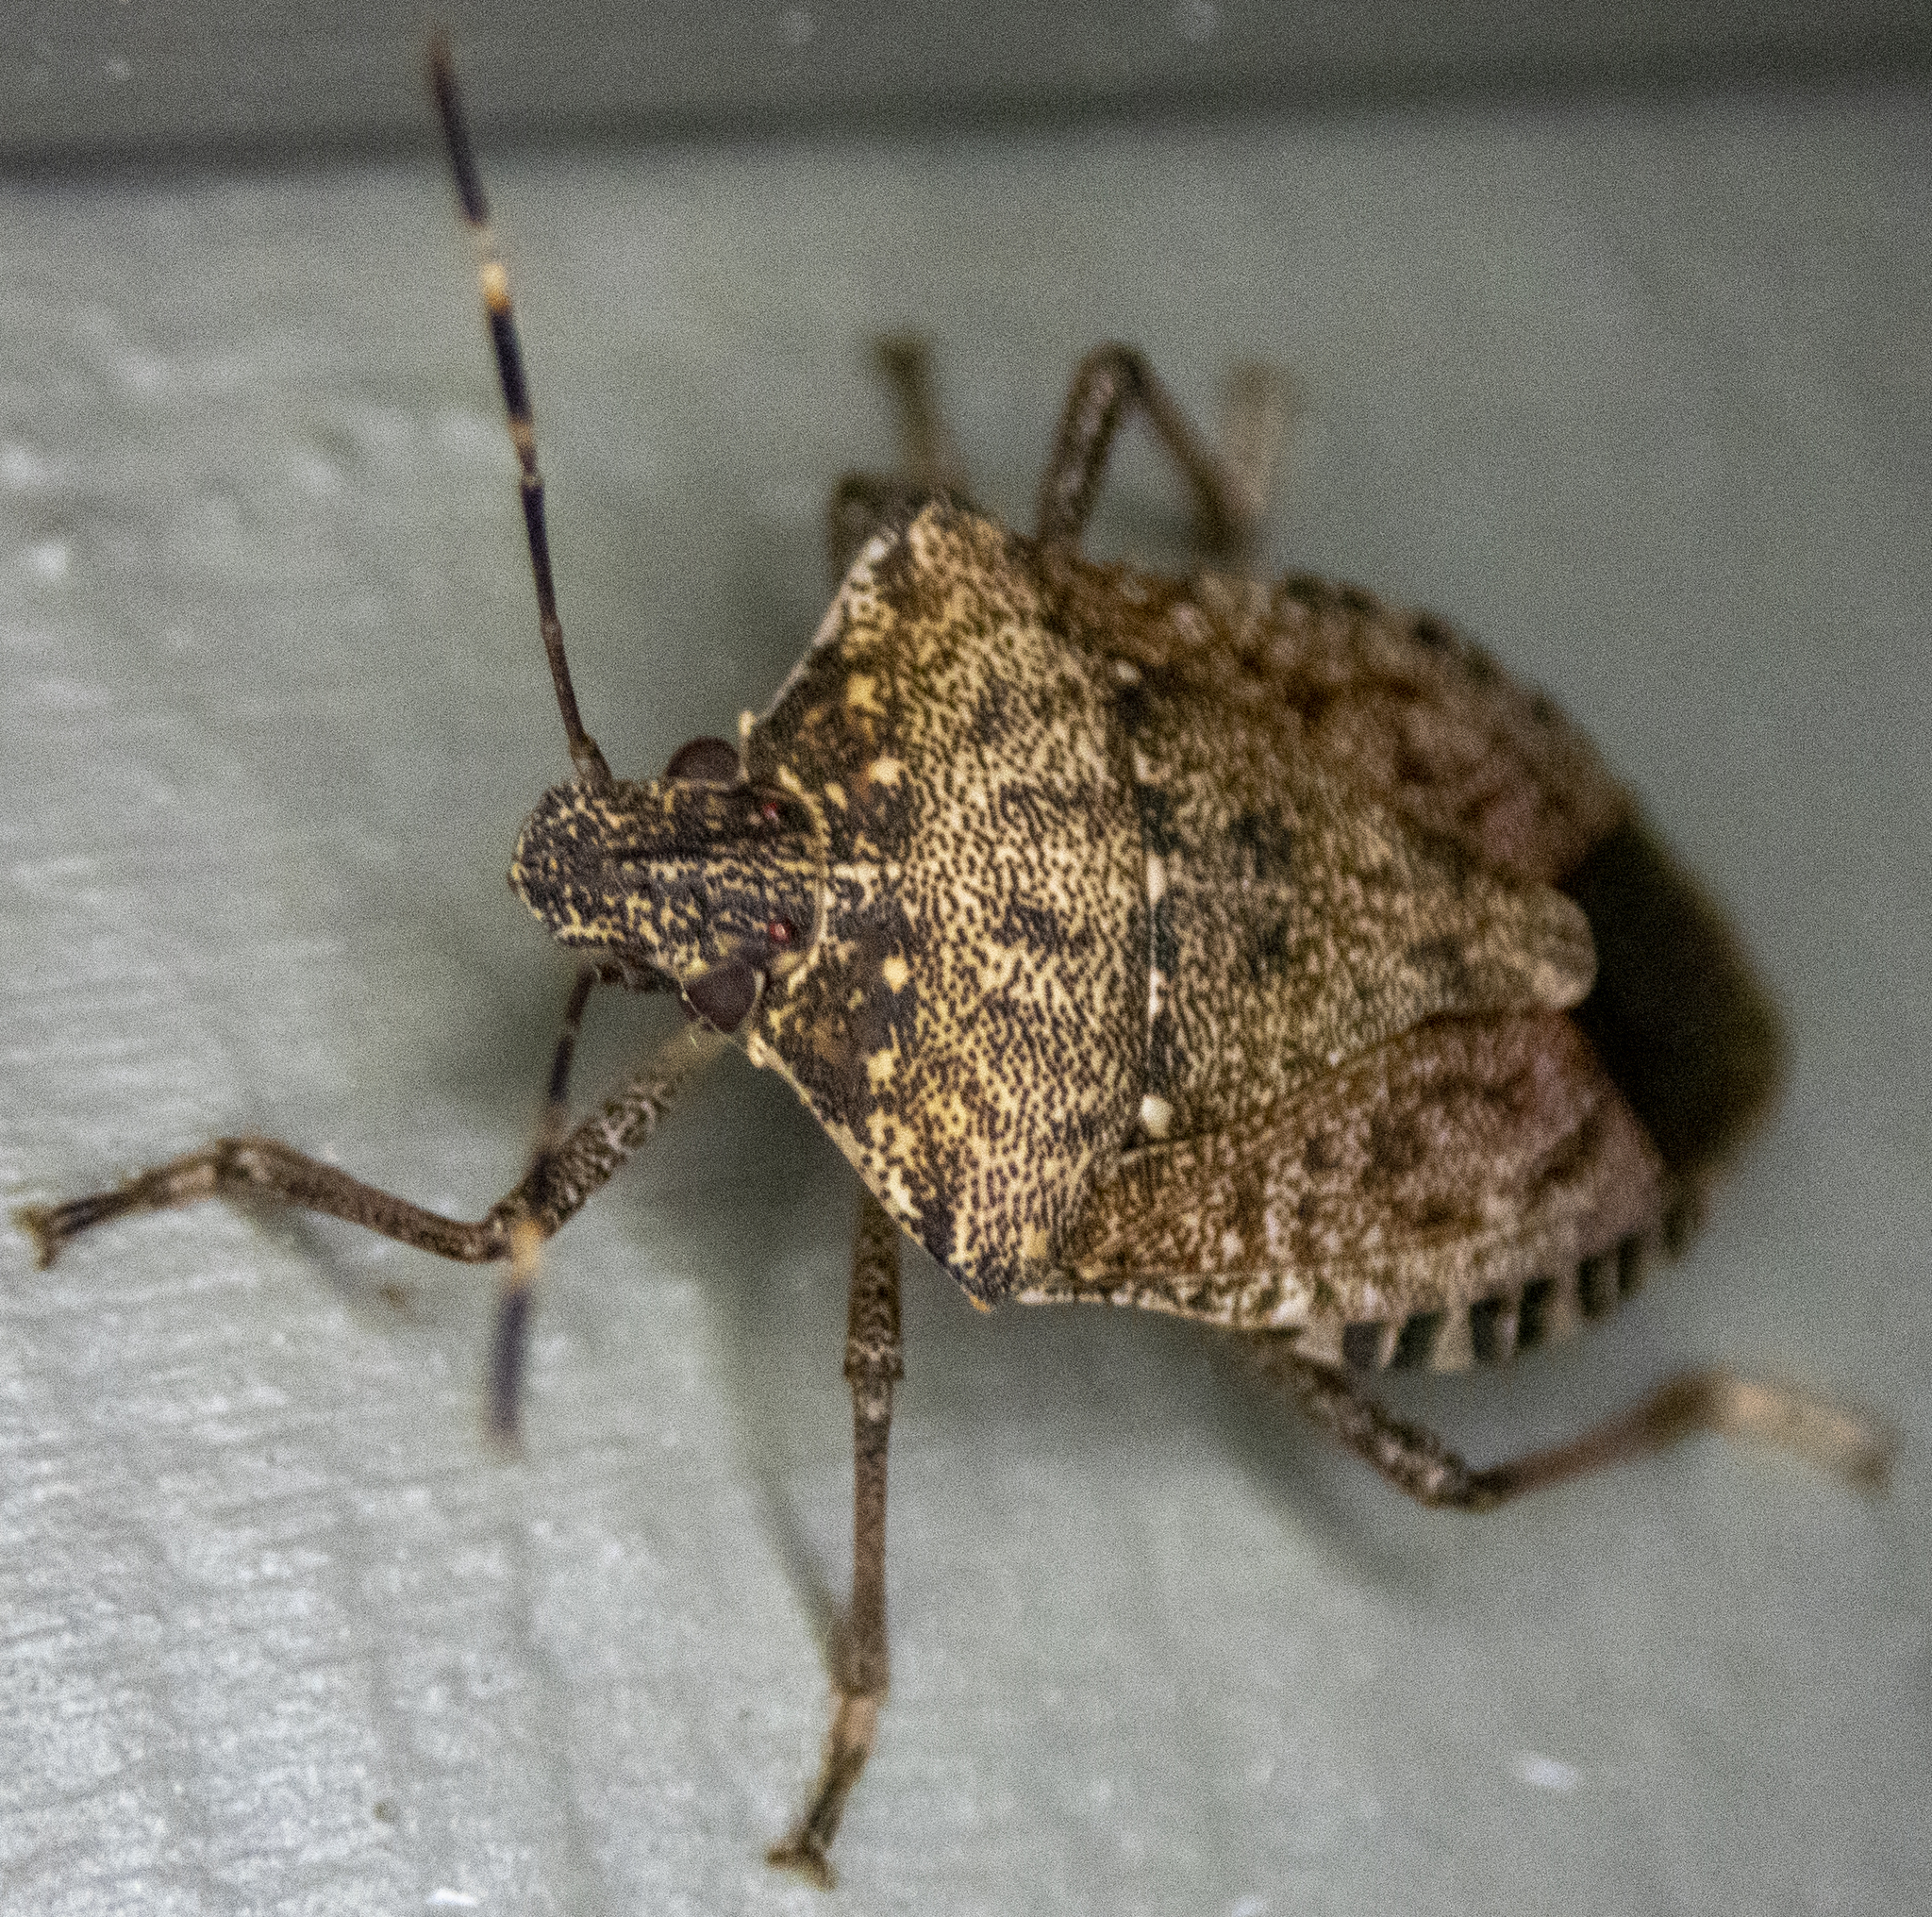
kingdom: Animalia
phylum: Arthropoda
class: Insecta
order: Hemiptera
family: Pentatomidae
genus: Halyomorpha
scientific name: Halyomorpha halys
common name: Brown marmorated stink bug
